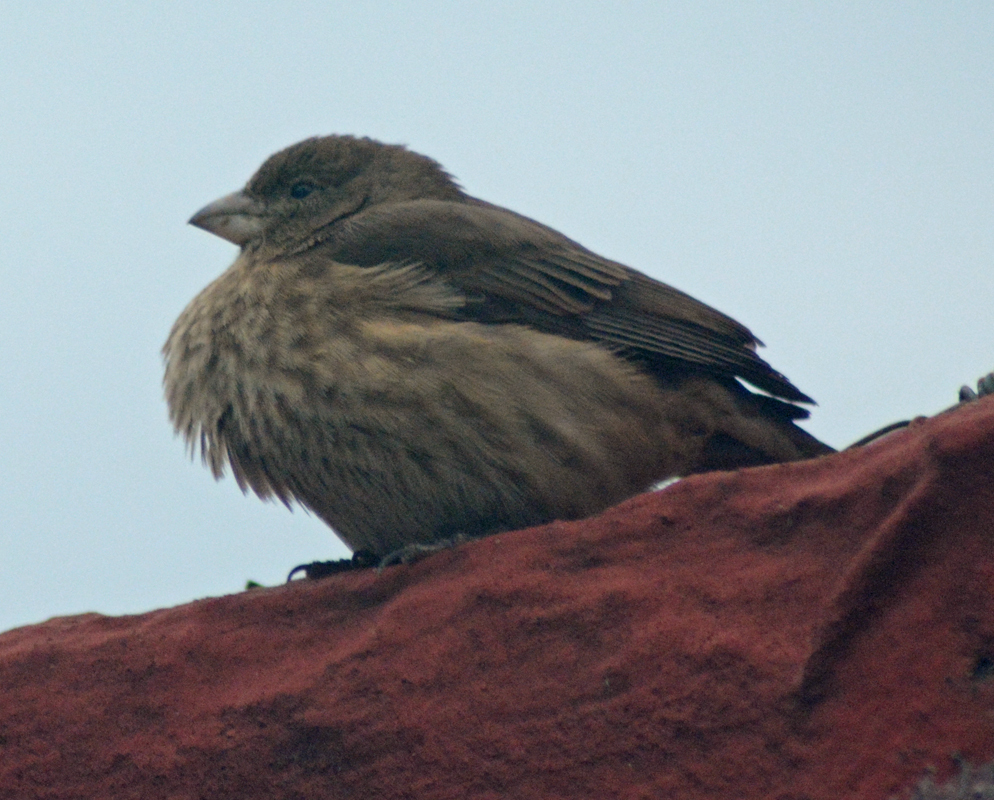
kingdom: Animalia
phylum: Chordata
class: Aves
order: Passeriformes
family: Fringillidae
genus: Haemorhous
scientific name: Haemorhous mexicanus
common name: House finch
